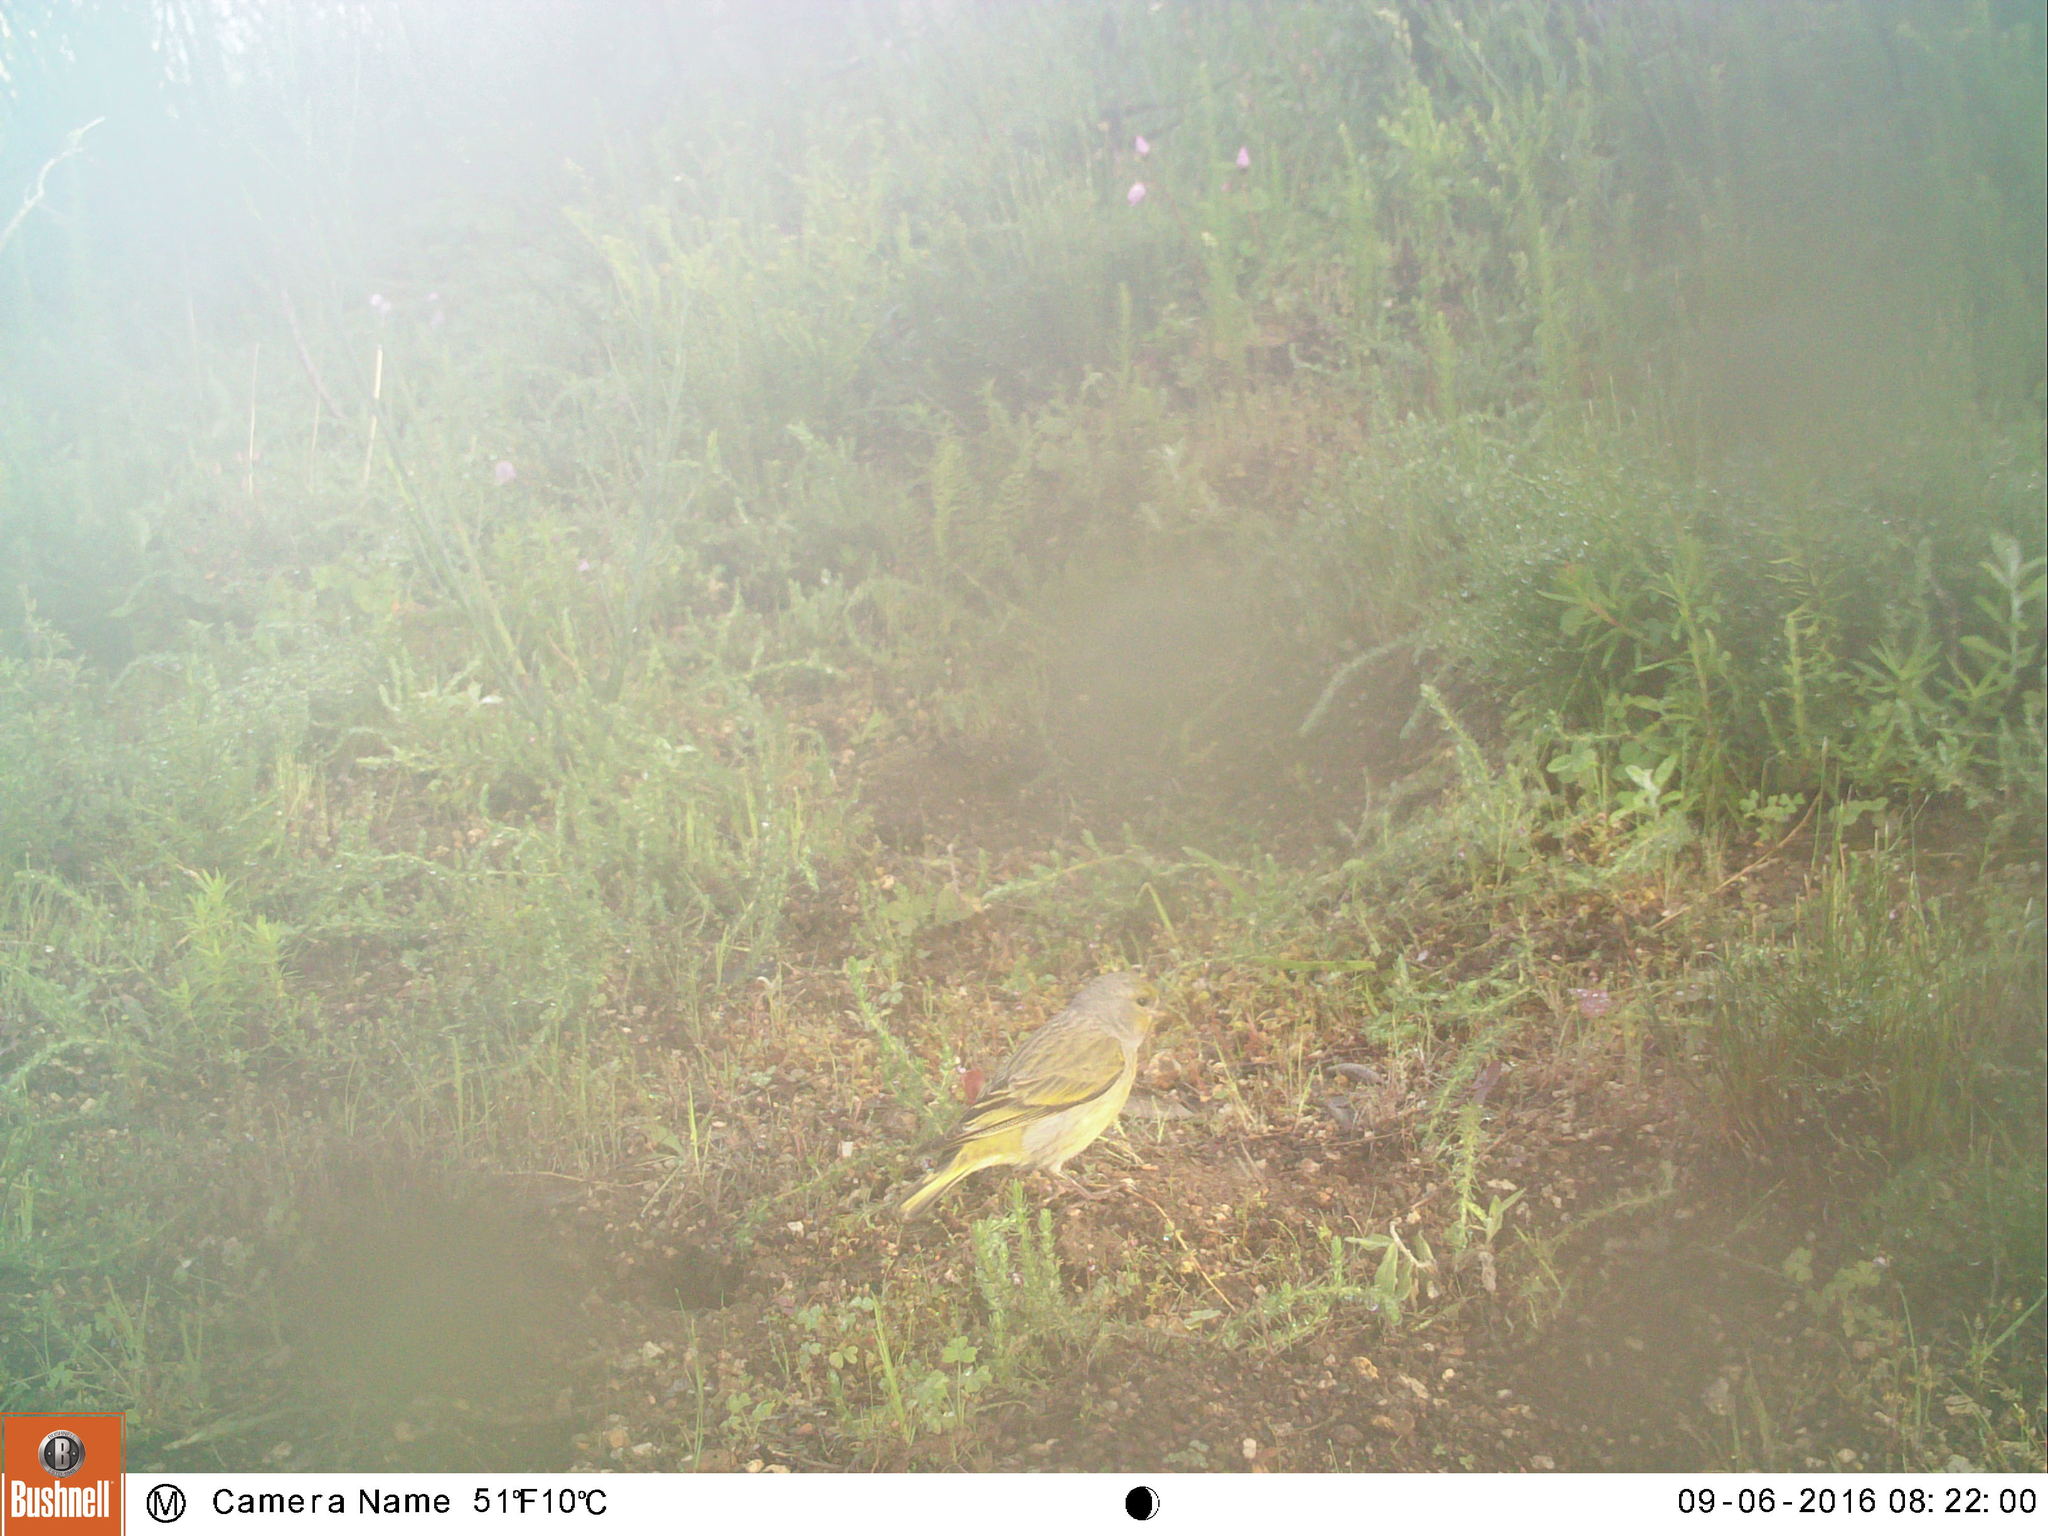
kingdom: Animalia
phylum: Chordata
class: Aves
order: Passeriformes
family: Fringillidae
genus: Serinus
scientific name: Serinus canicollis
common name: Cape canary
